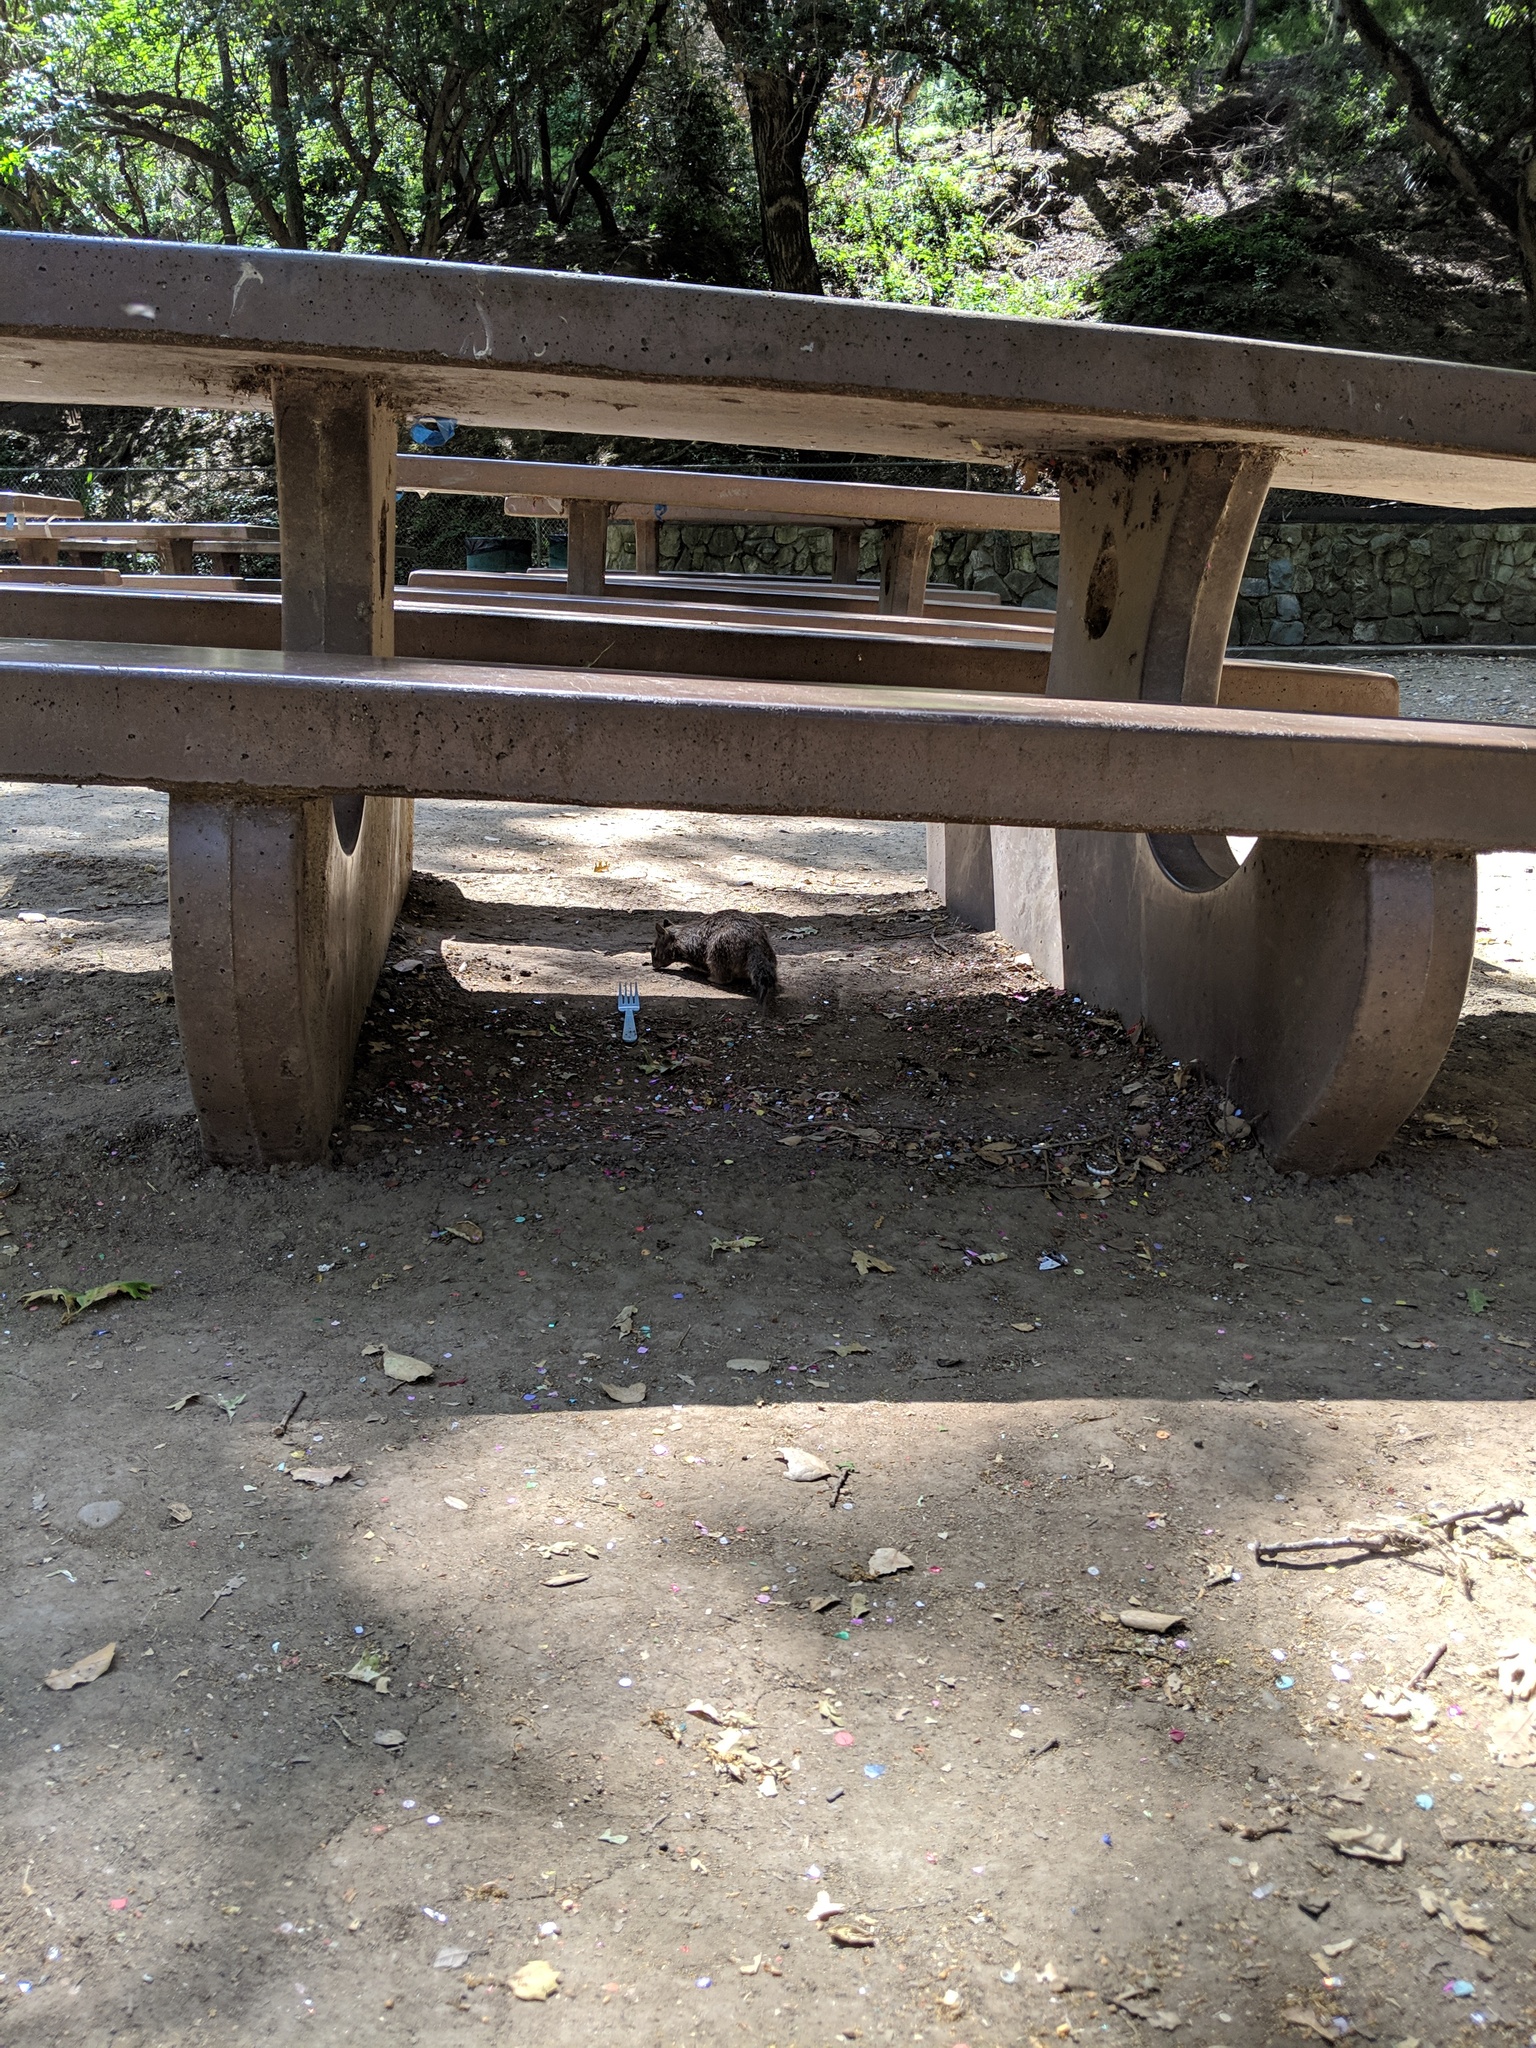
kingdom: Animalia
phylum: Chordata
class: Mammalia
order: Rodentia
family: Sciuridae
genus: Otospermophilus
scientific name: Otospermophilus beecheyi
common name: California ground squirrel
